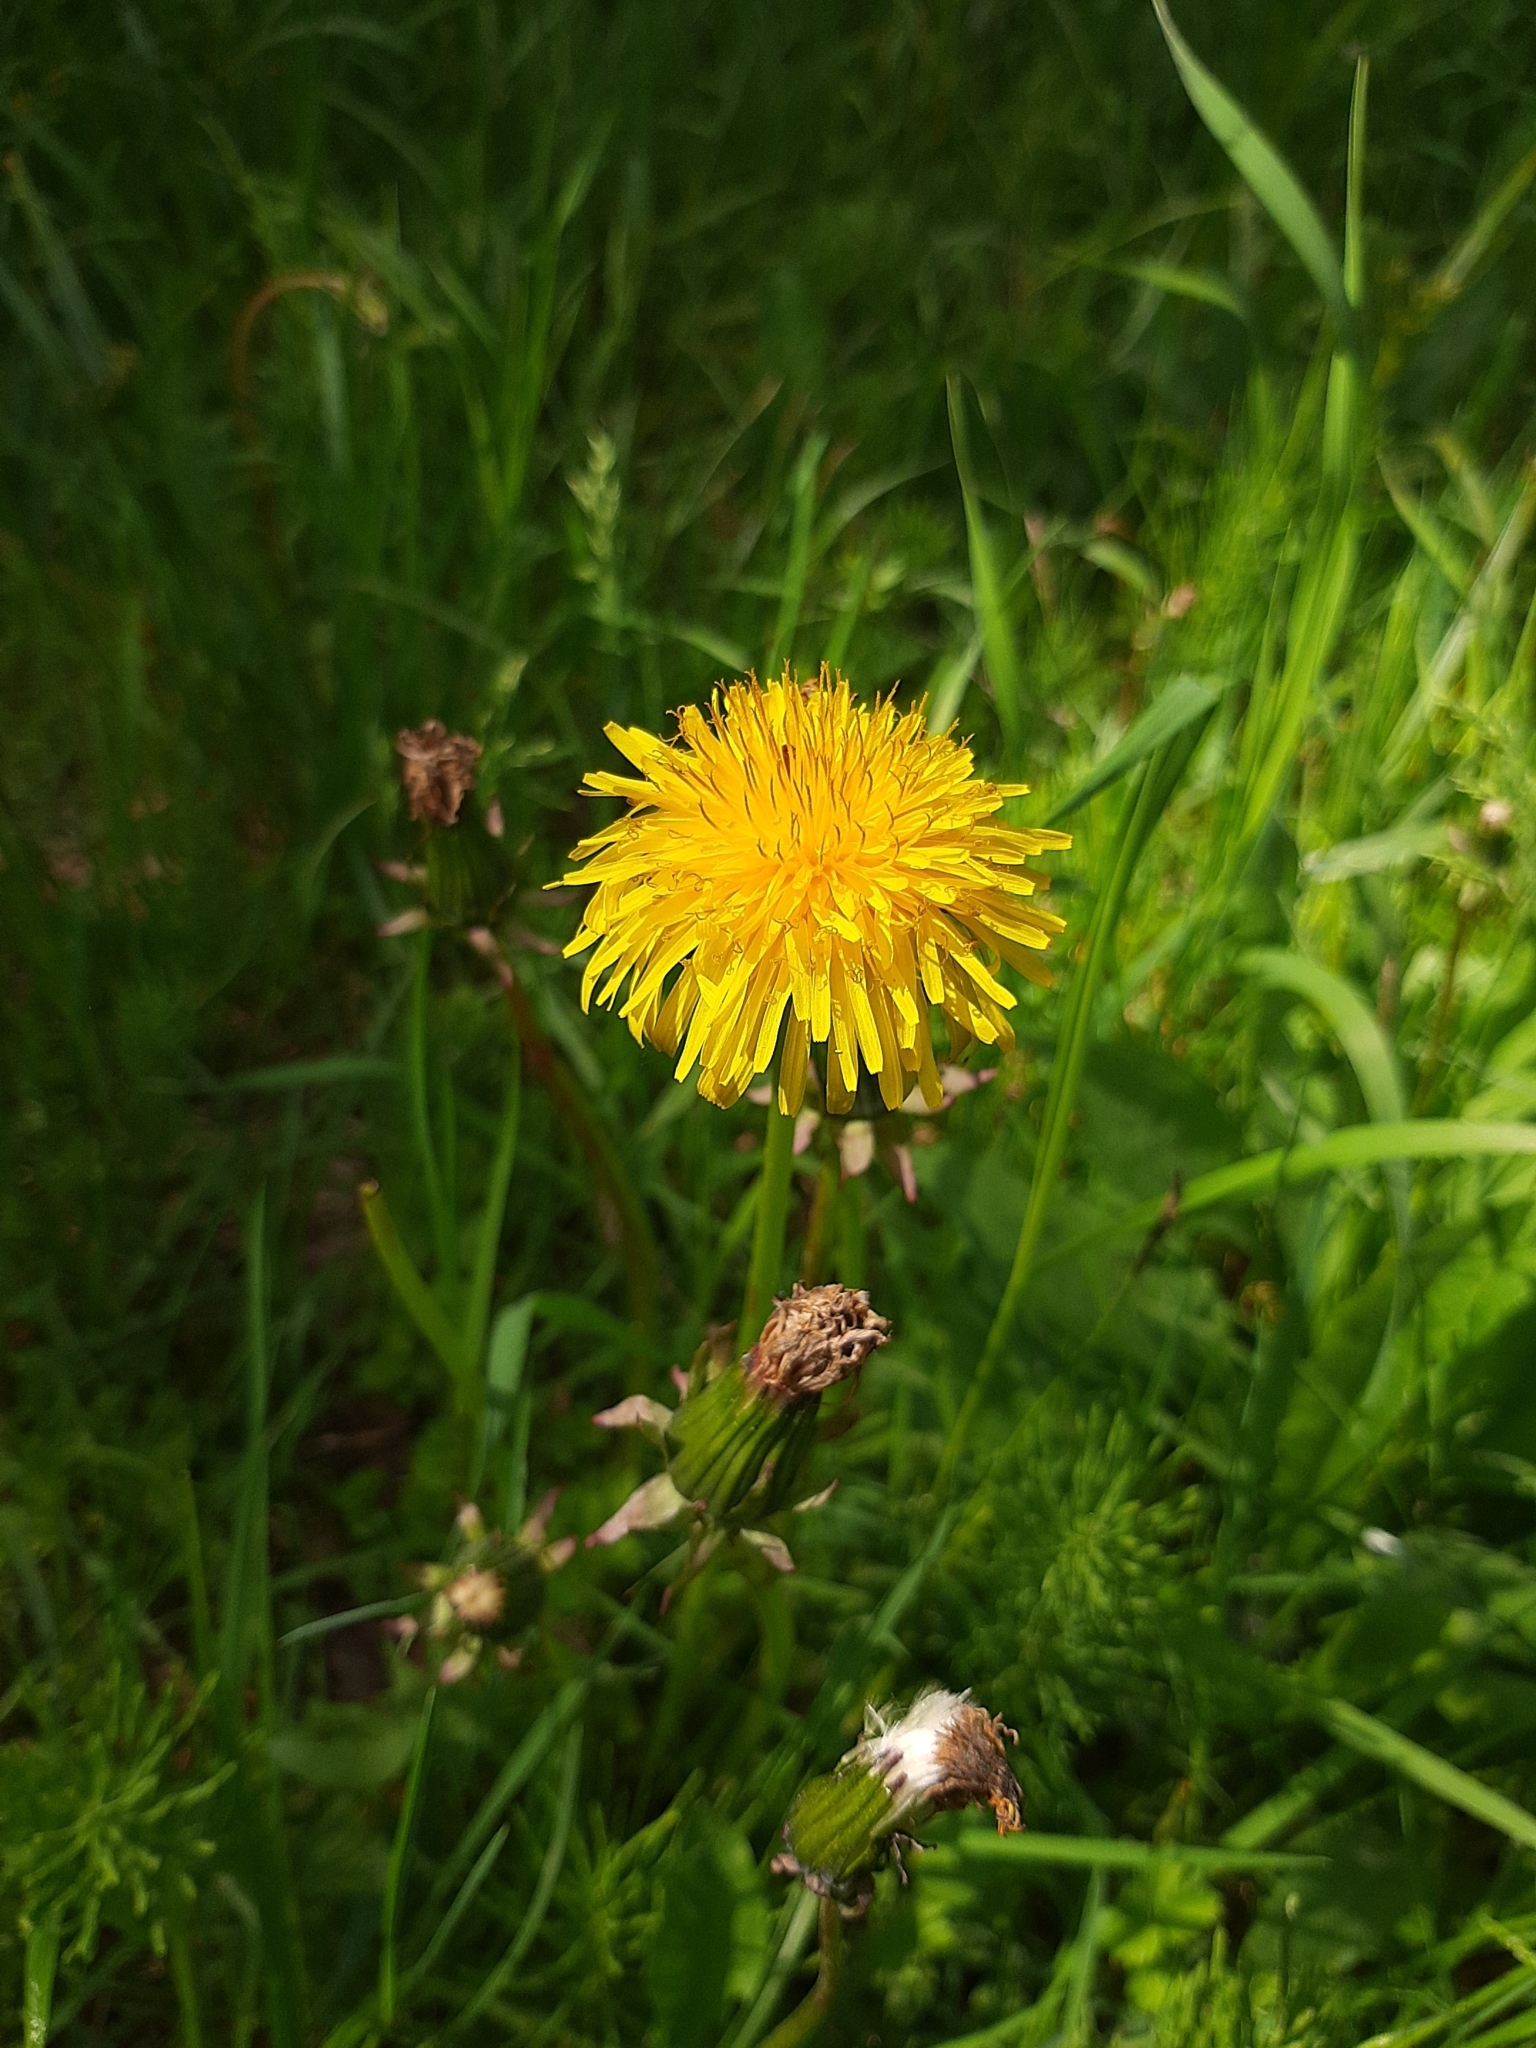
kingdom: Plantae
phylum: Tracheophyta
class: Magnoliopsida
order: Asterales
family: Asteraceae
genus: Taraxacum
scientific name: Taraxacum officinale
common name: Common dandelion
